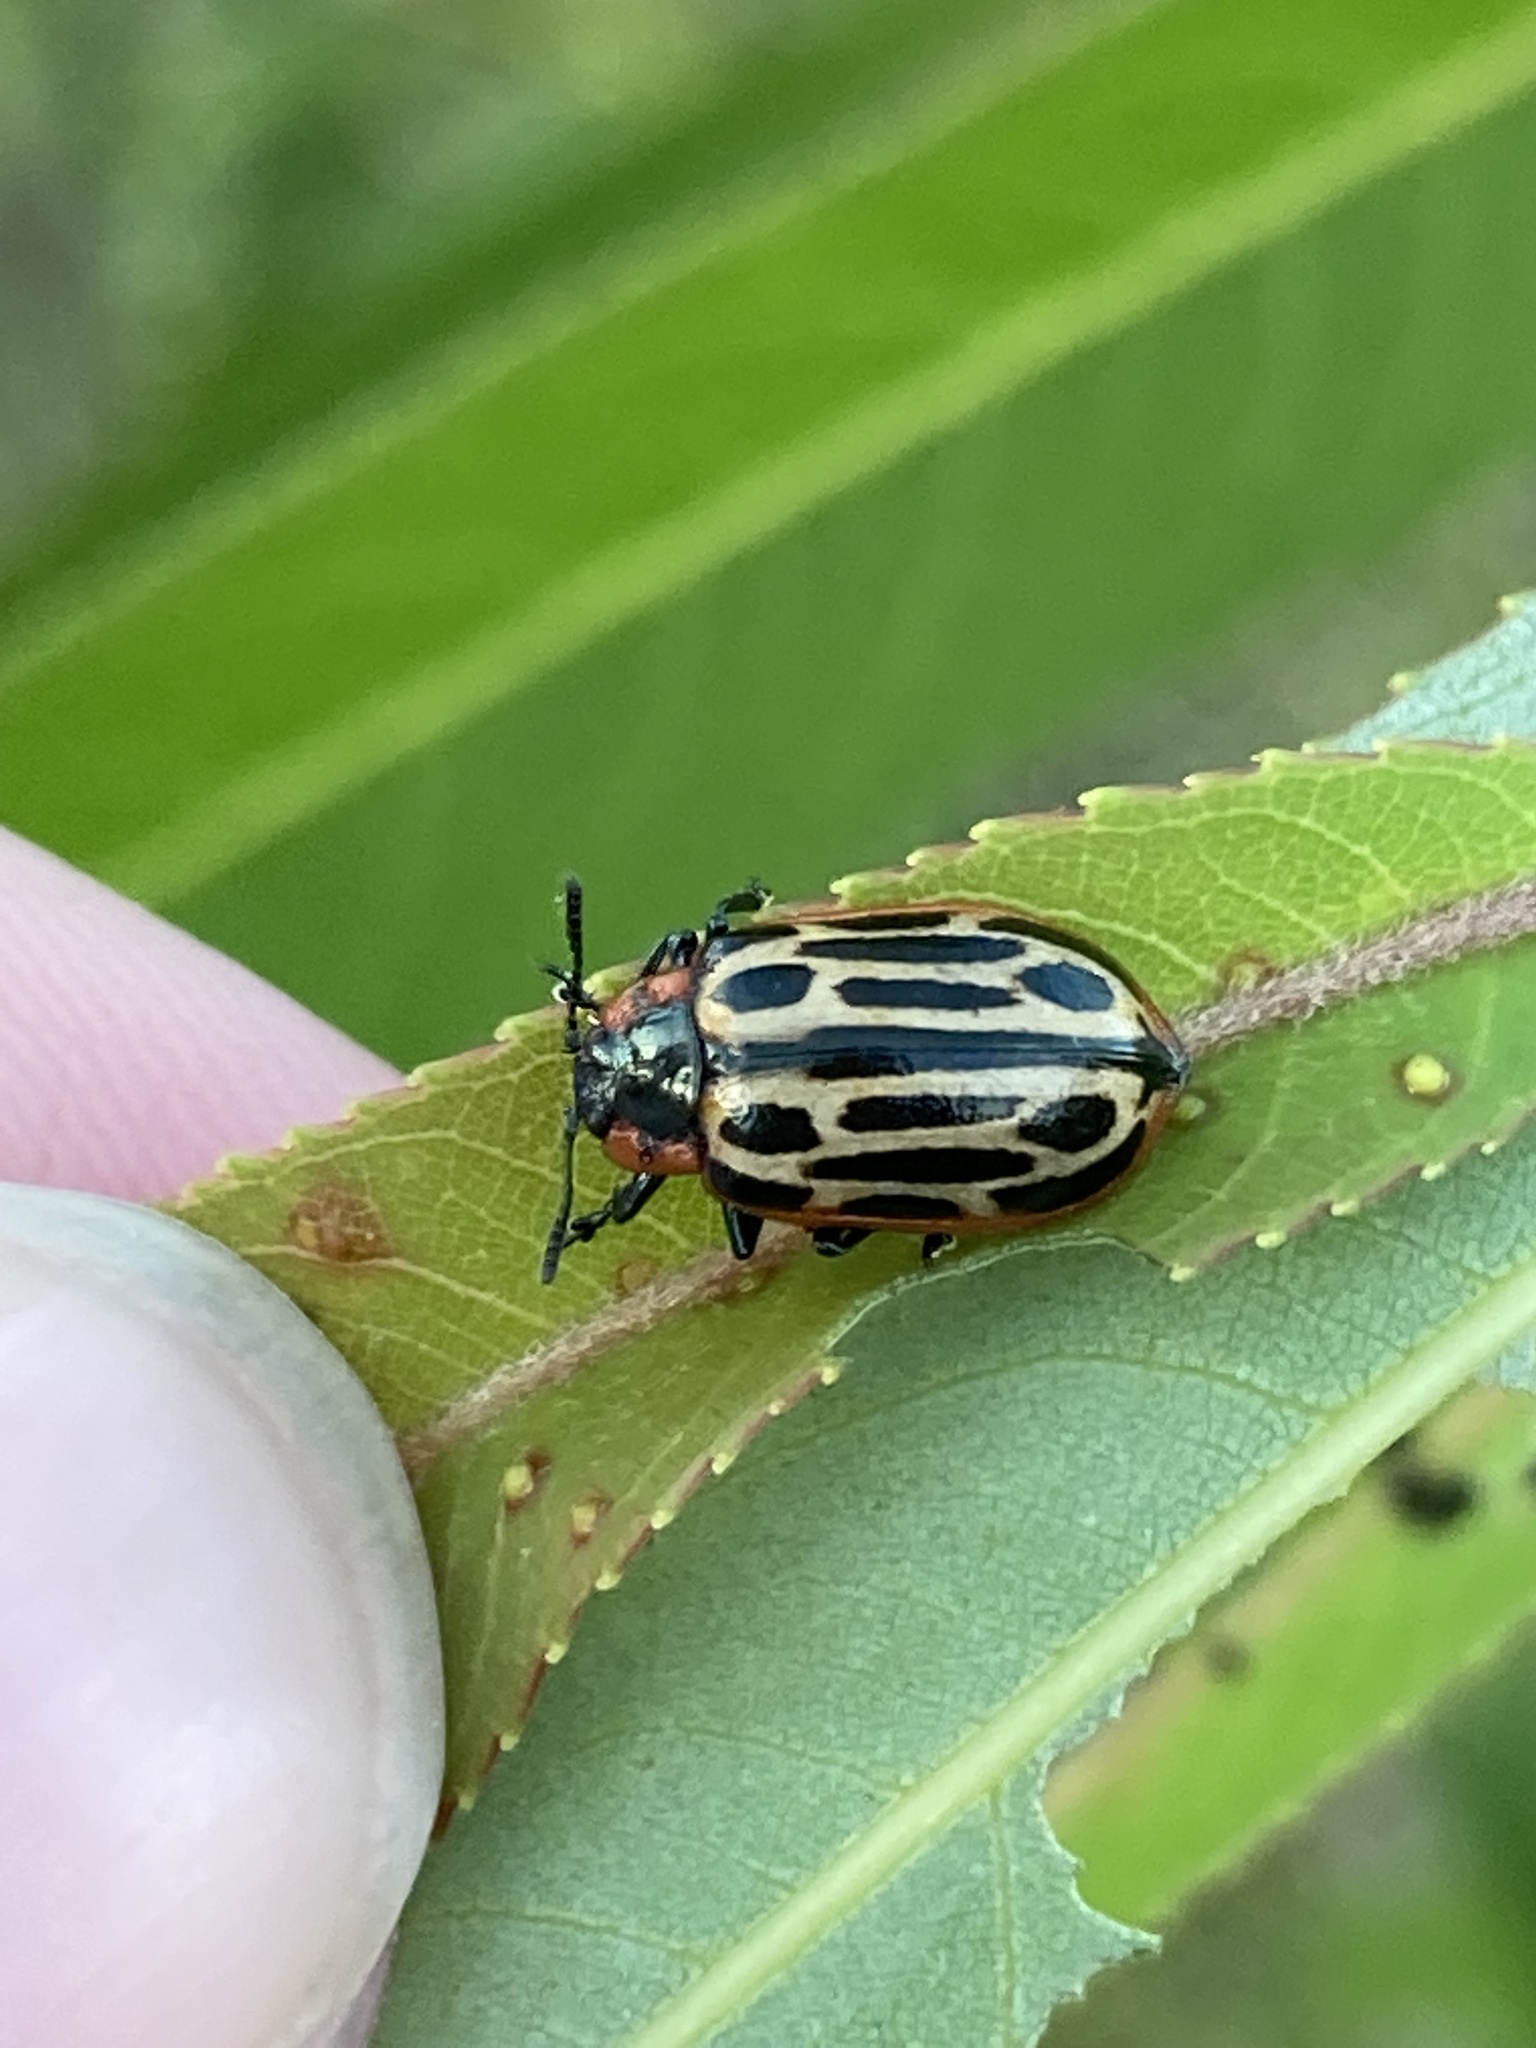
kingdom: Animalia
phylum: Arthropoda
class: Insecta
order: Coleoptera
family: Chrysomelidae
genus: Aethiopocassis
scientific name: Aethiopocassis scripta
